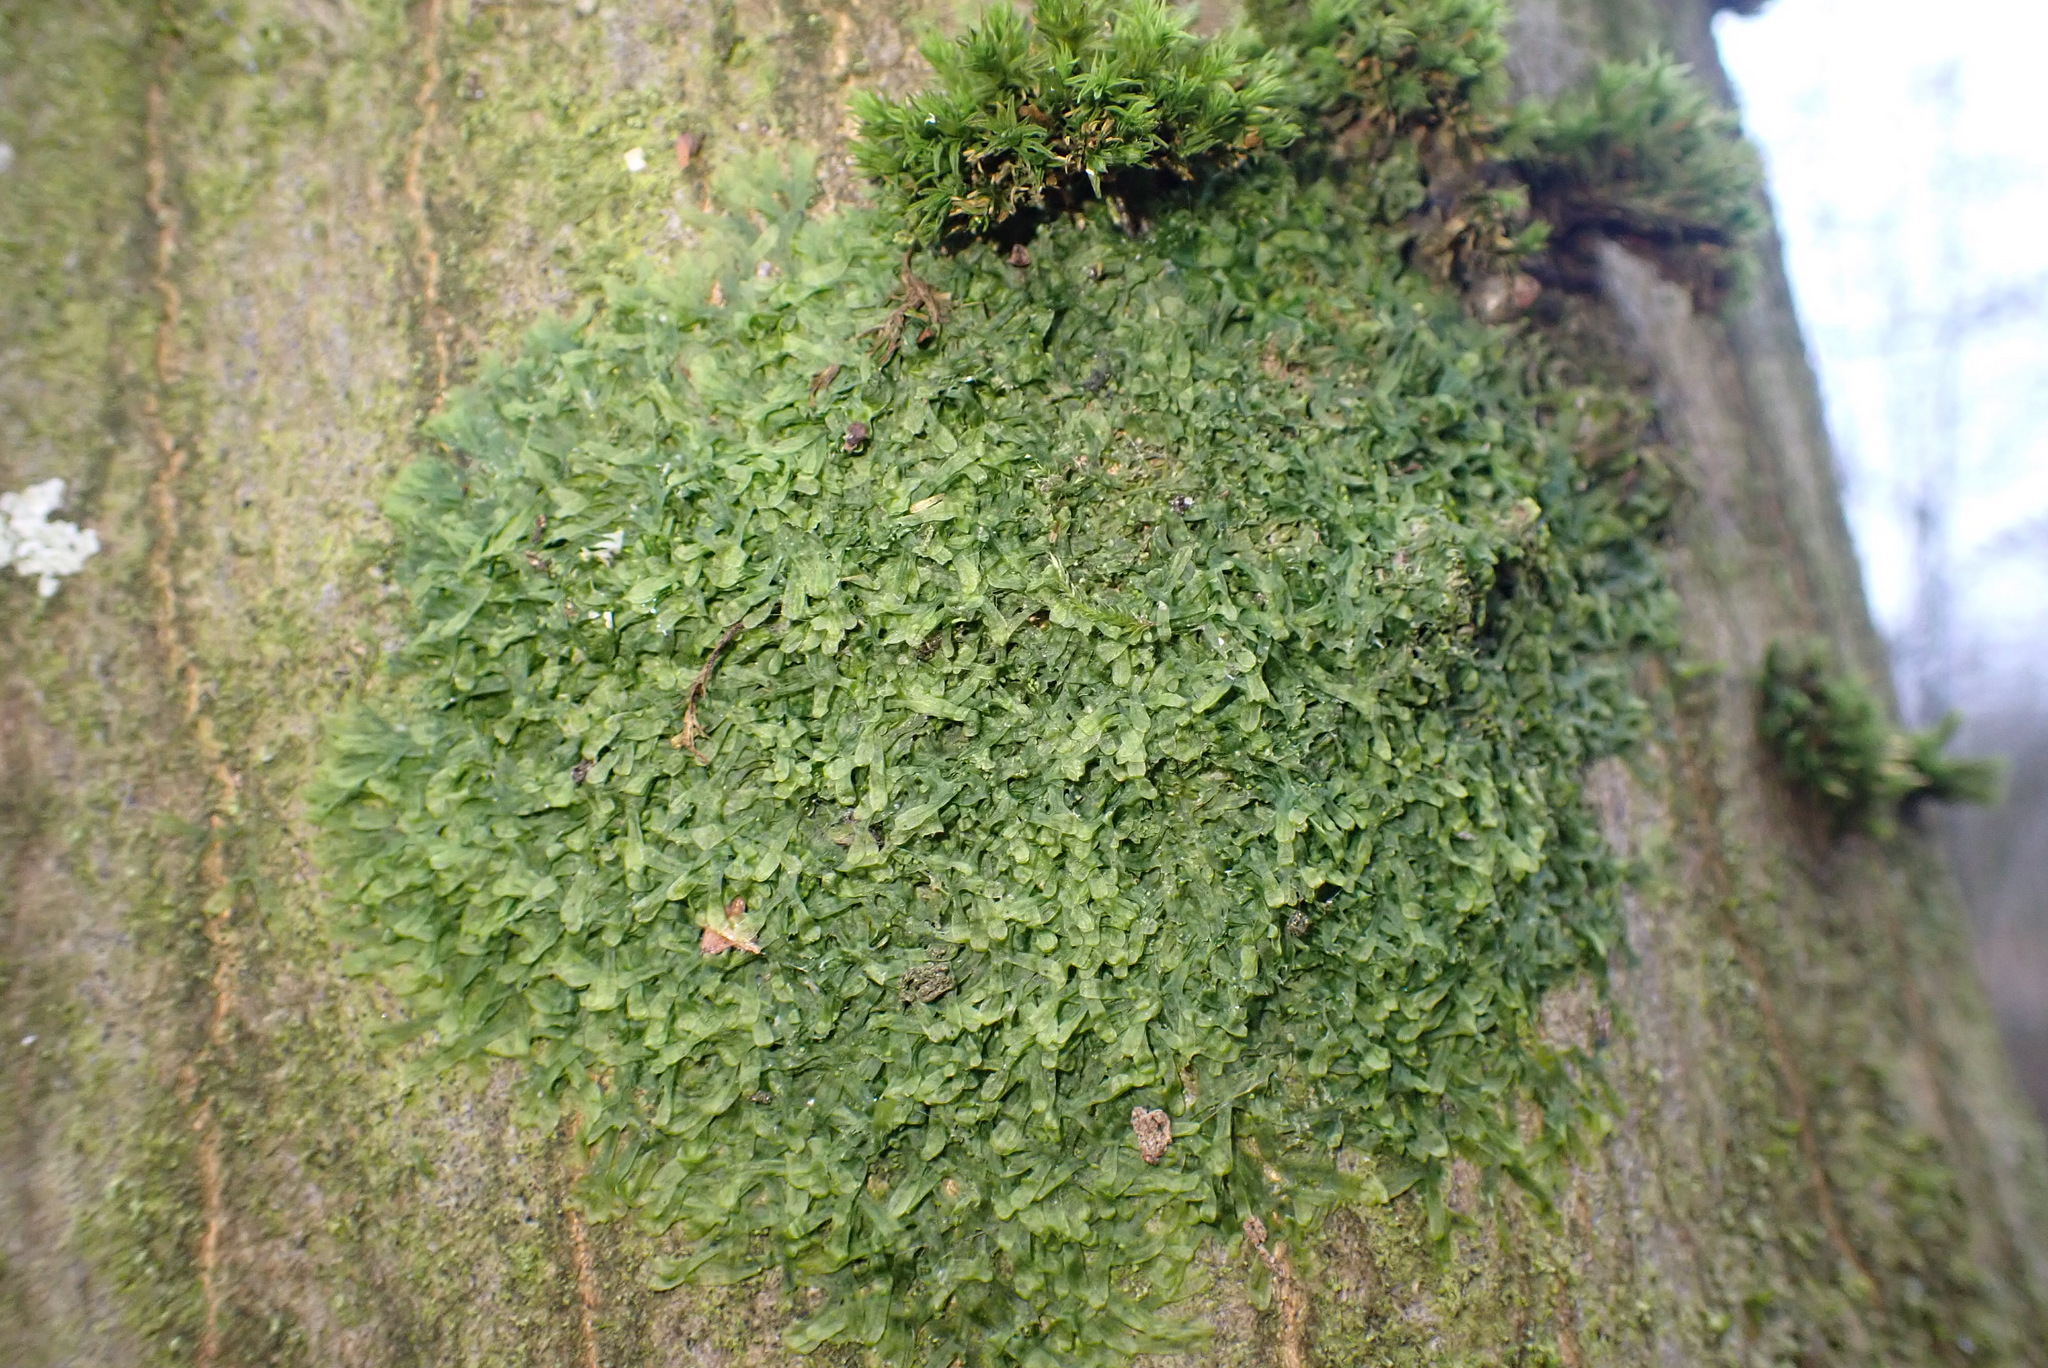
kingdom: Plantae
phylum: Marchantiophyta
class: Jungermanniopsida
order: Metzgeriales
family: Metzgeriaceae
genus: Metzgeria
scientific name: Metzgeria furcata
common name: Forked veilwort
